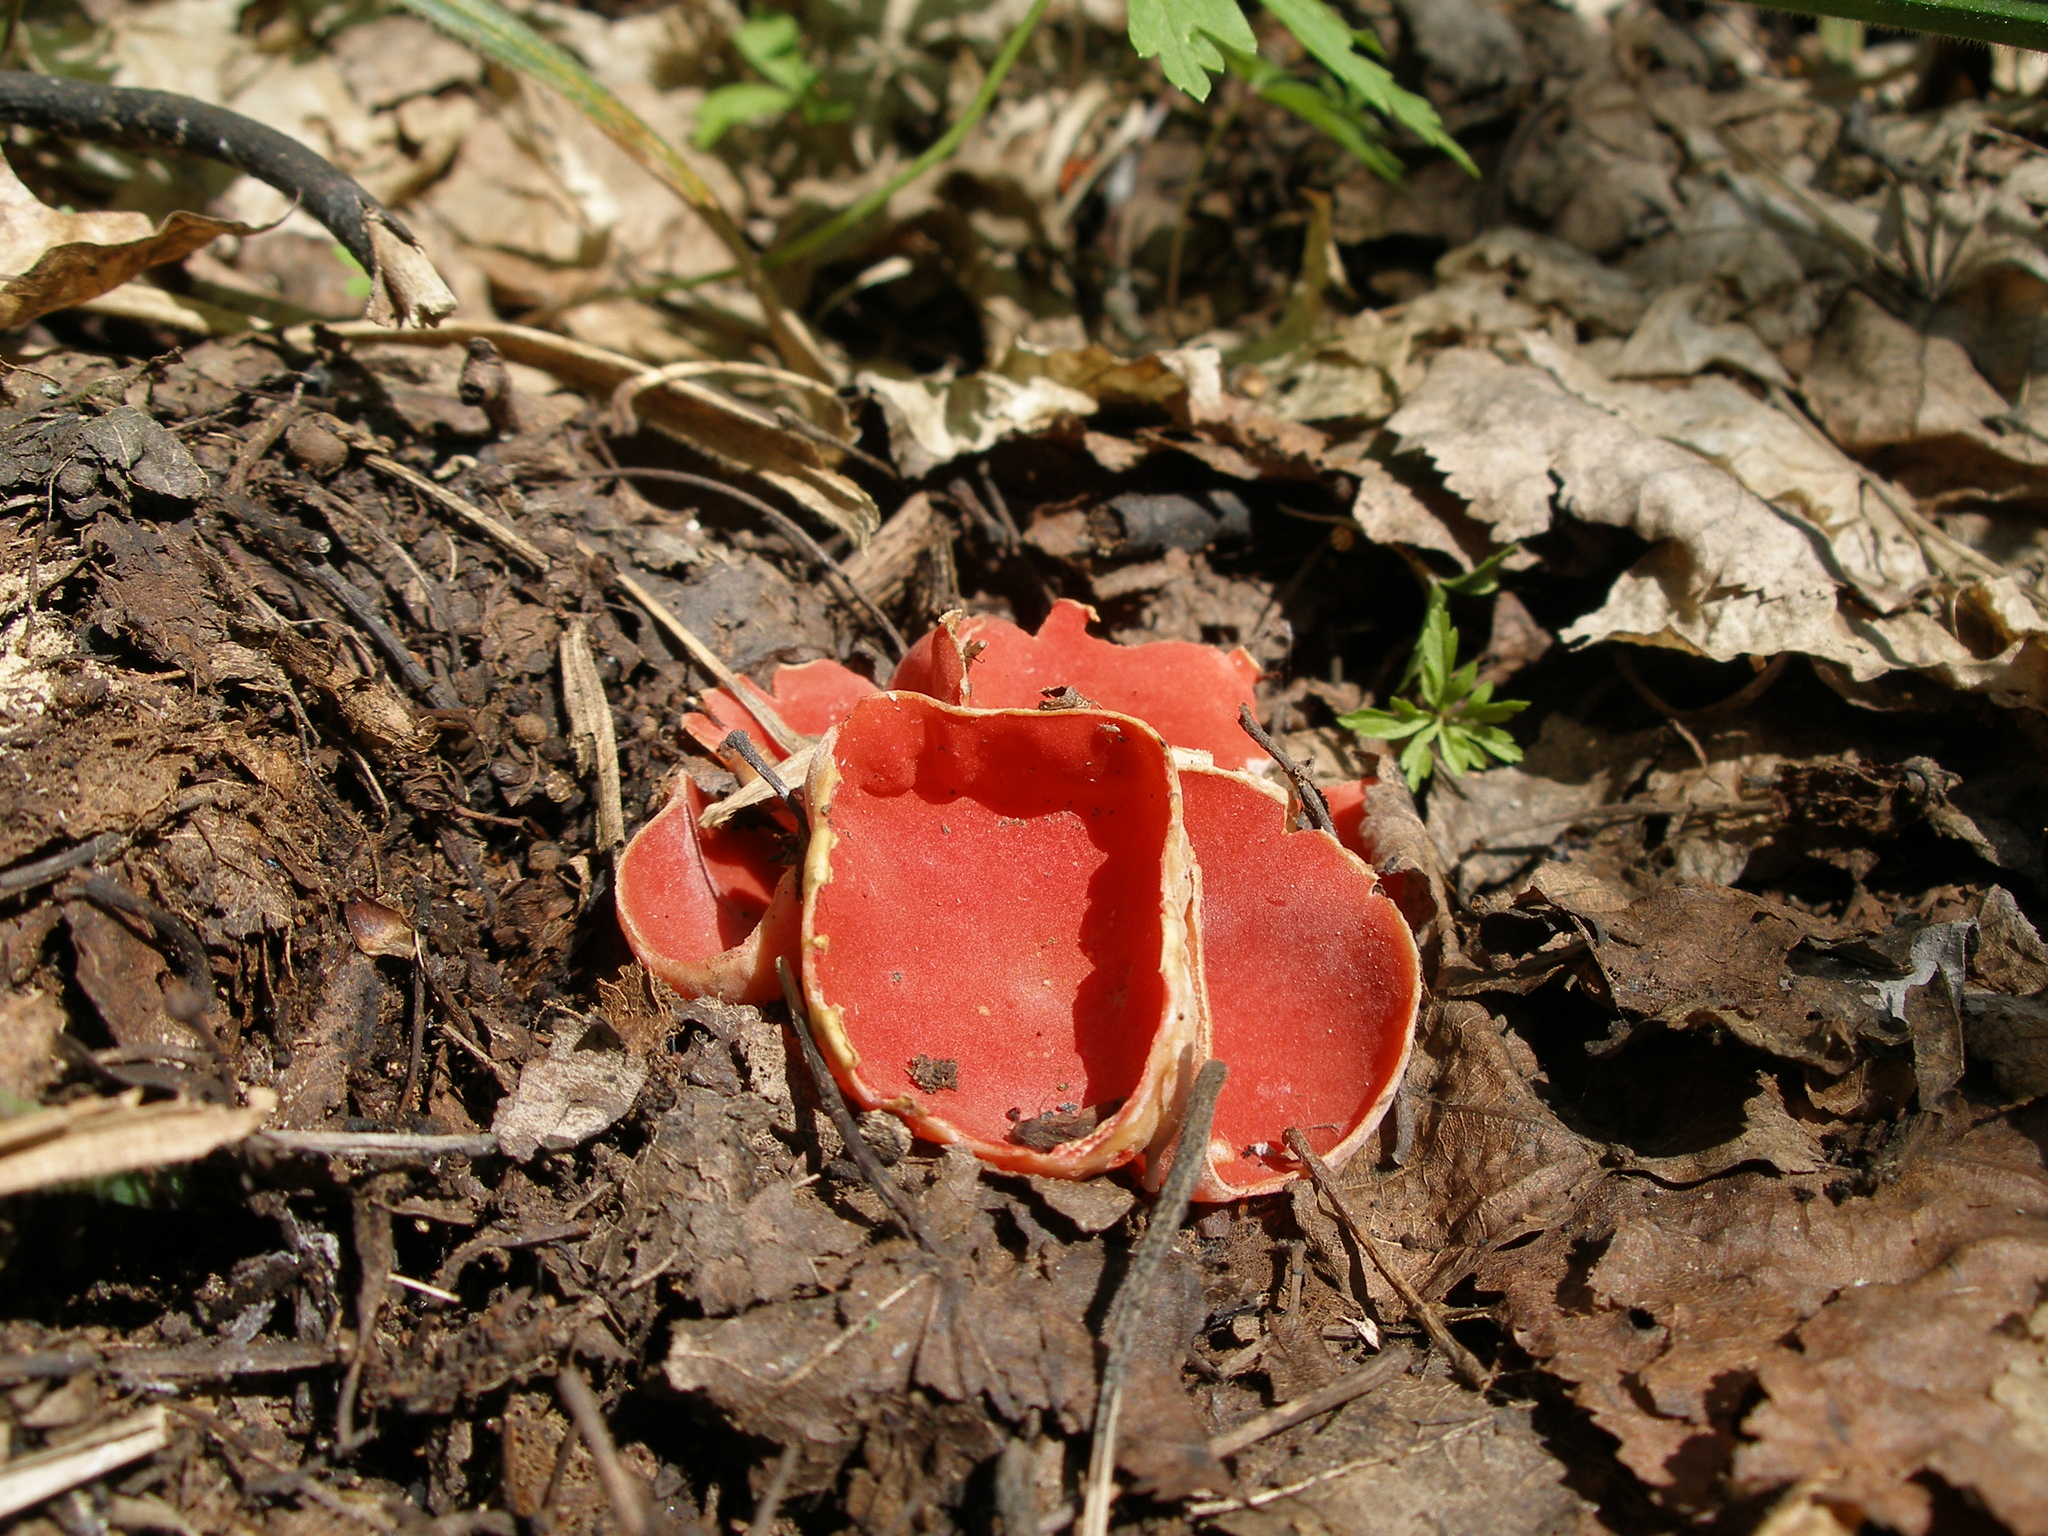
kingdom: Fungi
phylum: Ascomycota
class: Pezizomycetes
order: Pezizales
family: Sarcoscyphaceae
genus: Sarcoscypha
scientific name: Sarcoscypha austriaca
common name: Scarlet elfcup
